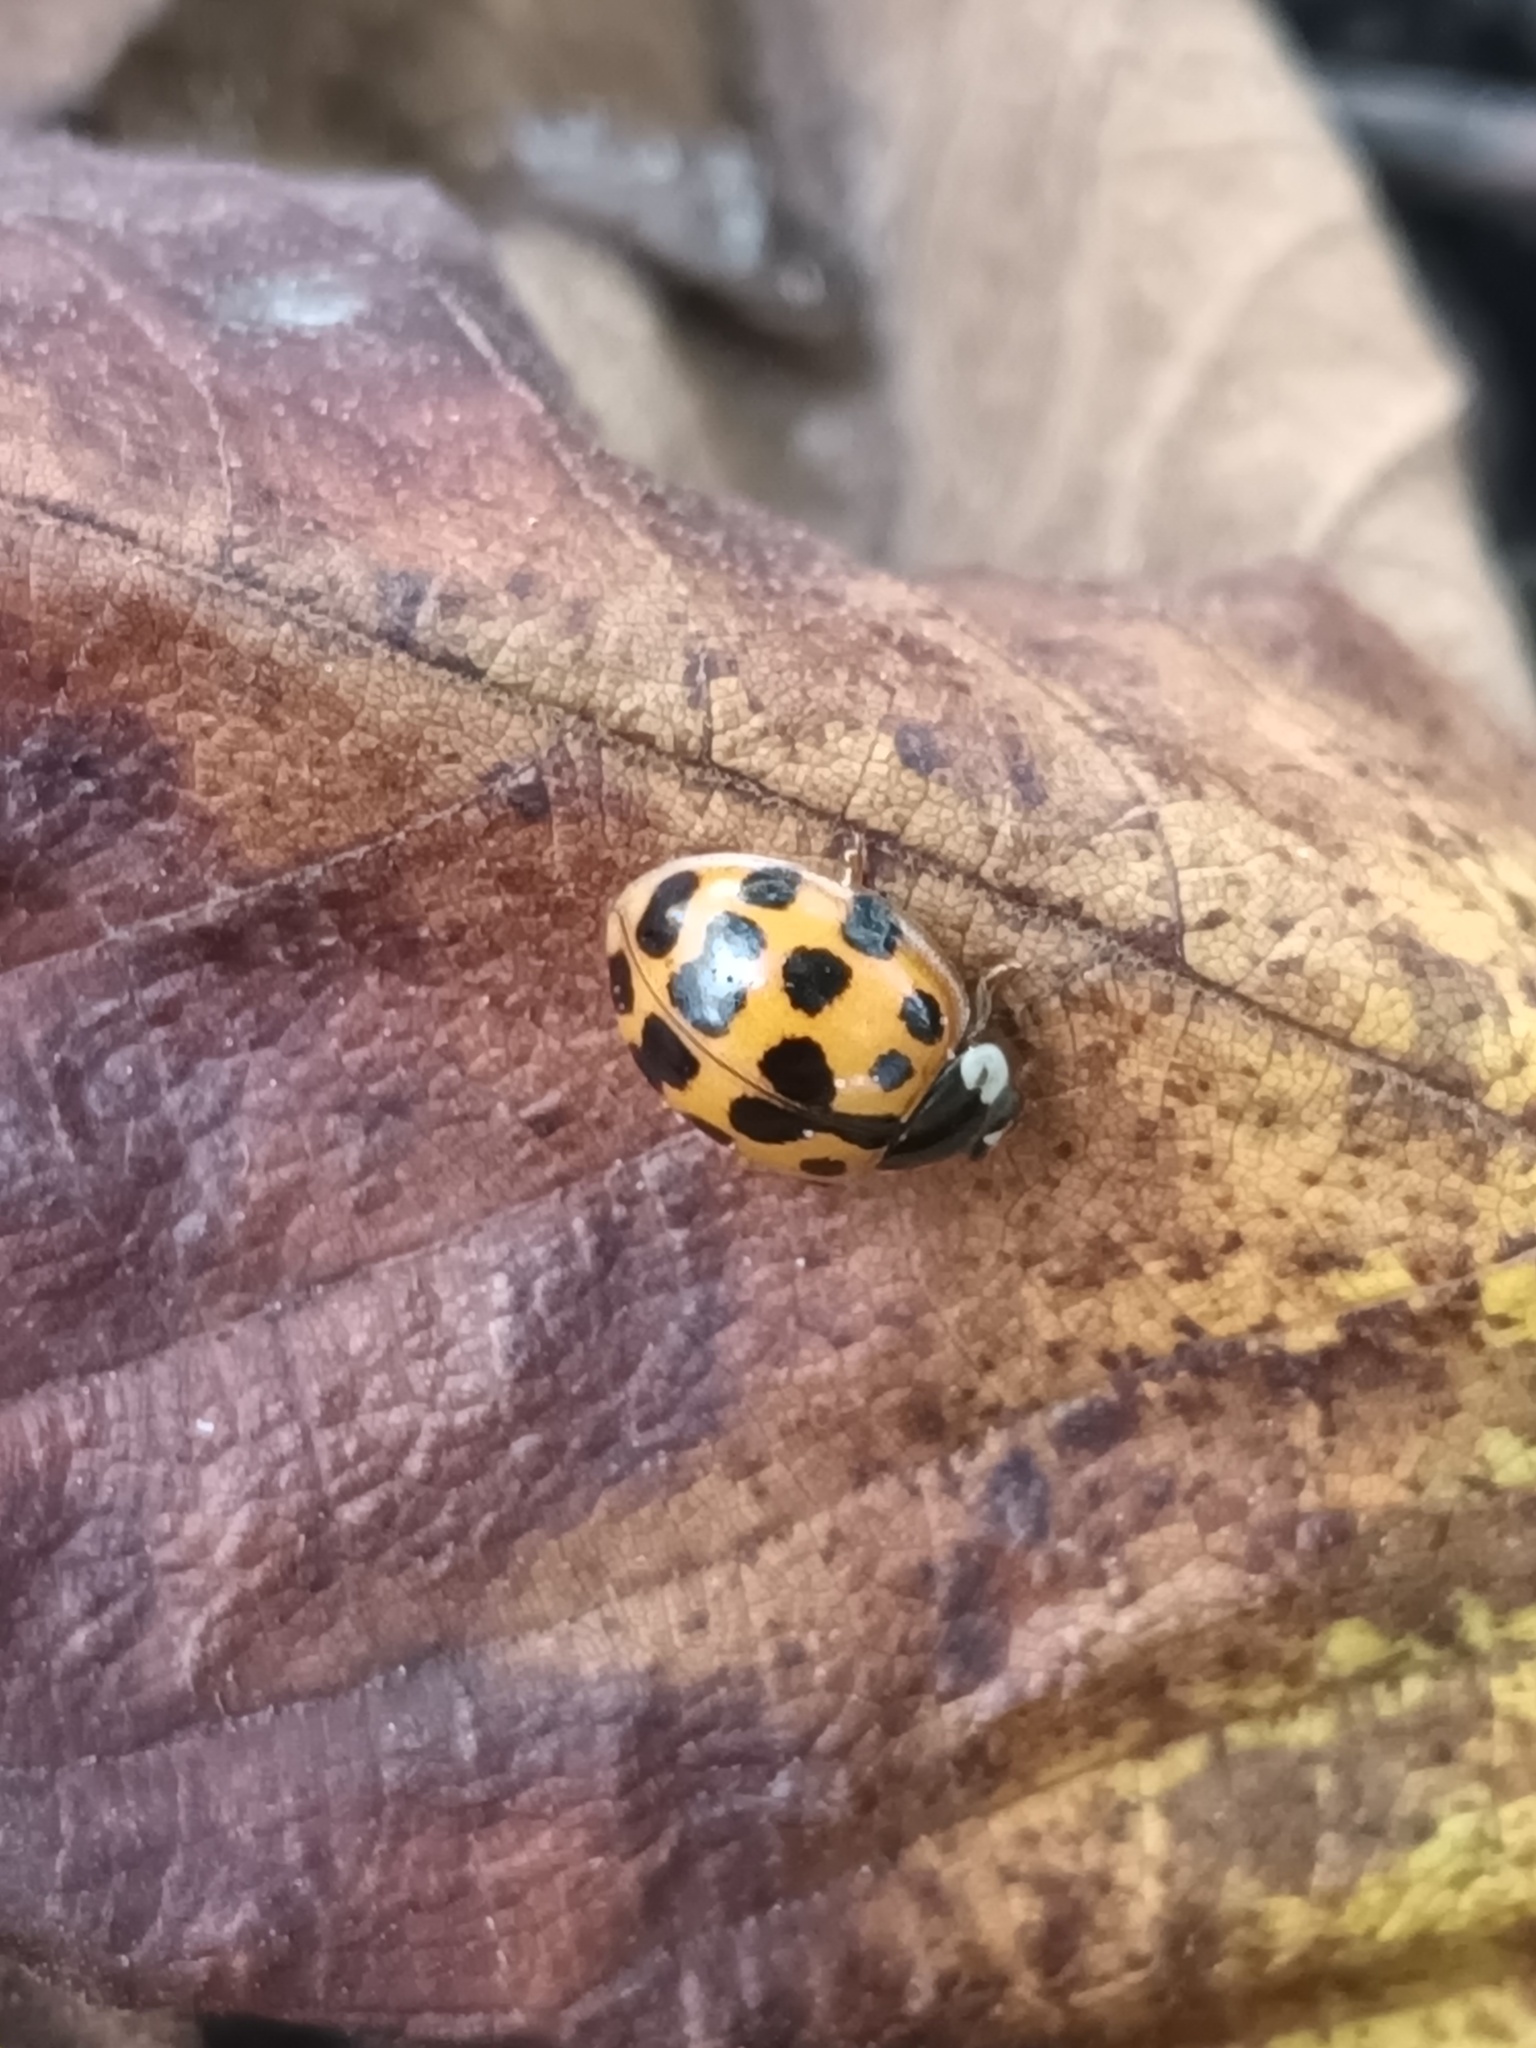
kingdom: Animalia
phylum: Arthropoda
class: Insecta
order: Coleoptera
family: Coccinellidae
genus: Harmonia
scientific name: Harmonia axyridis
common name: Harlequin ladybird
